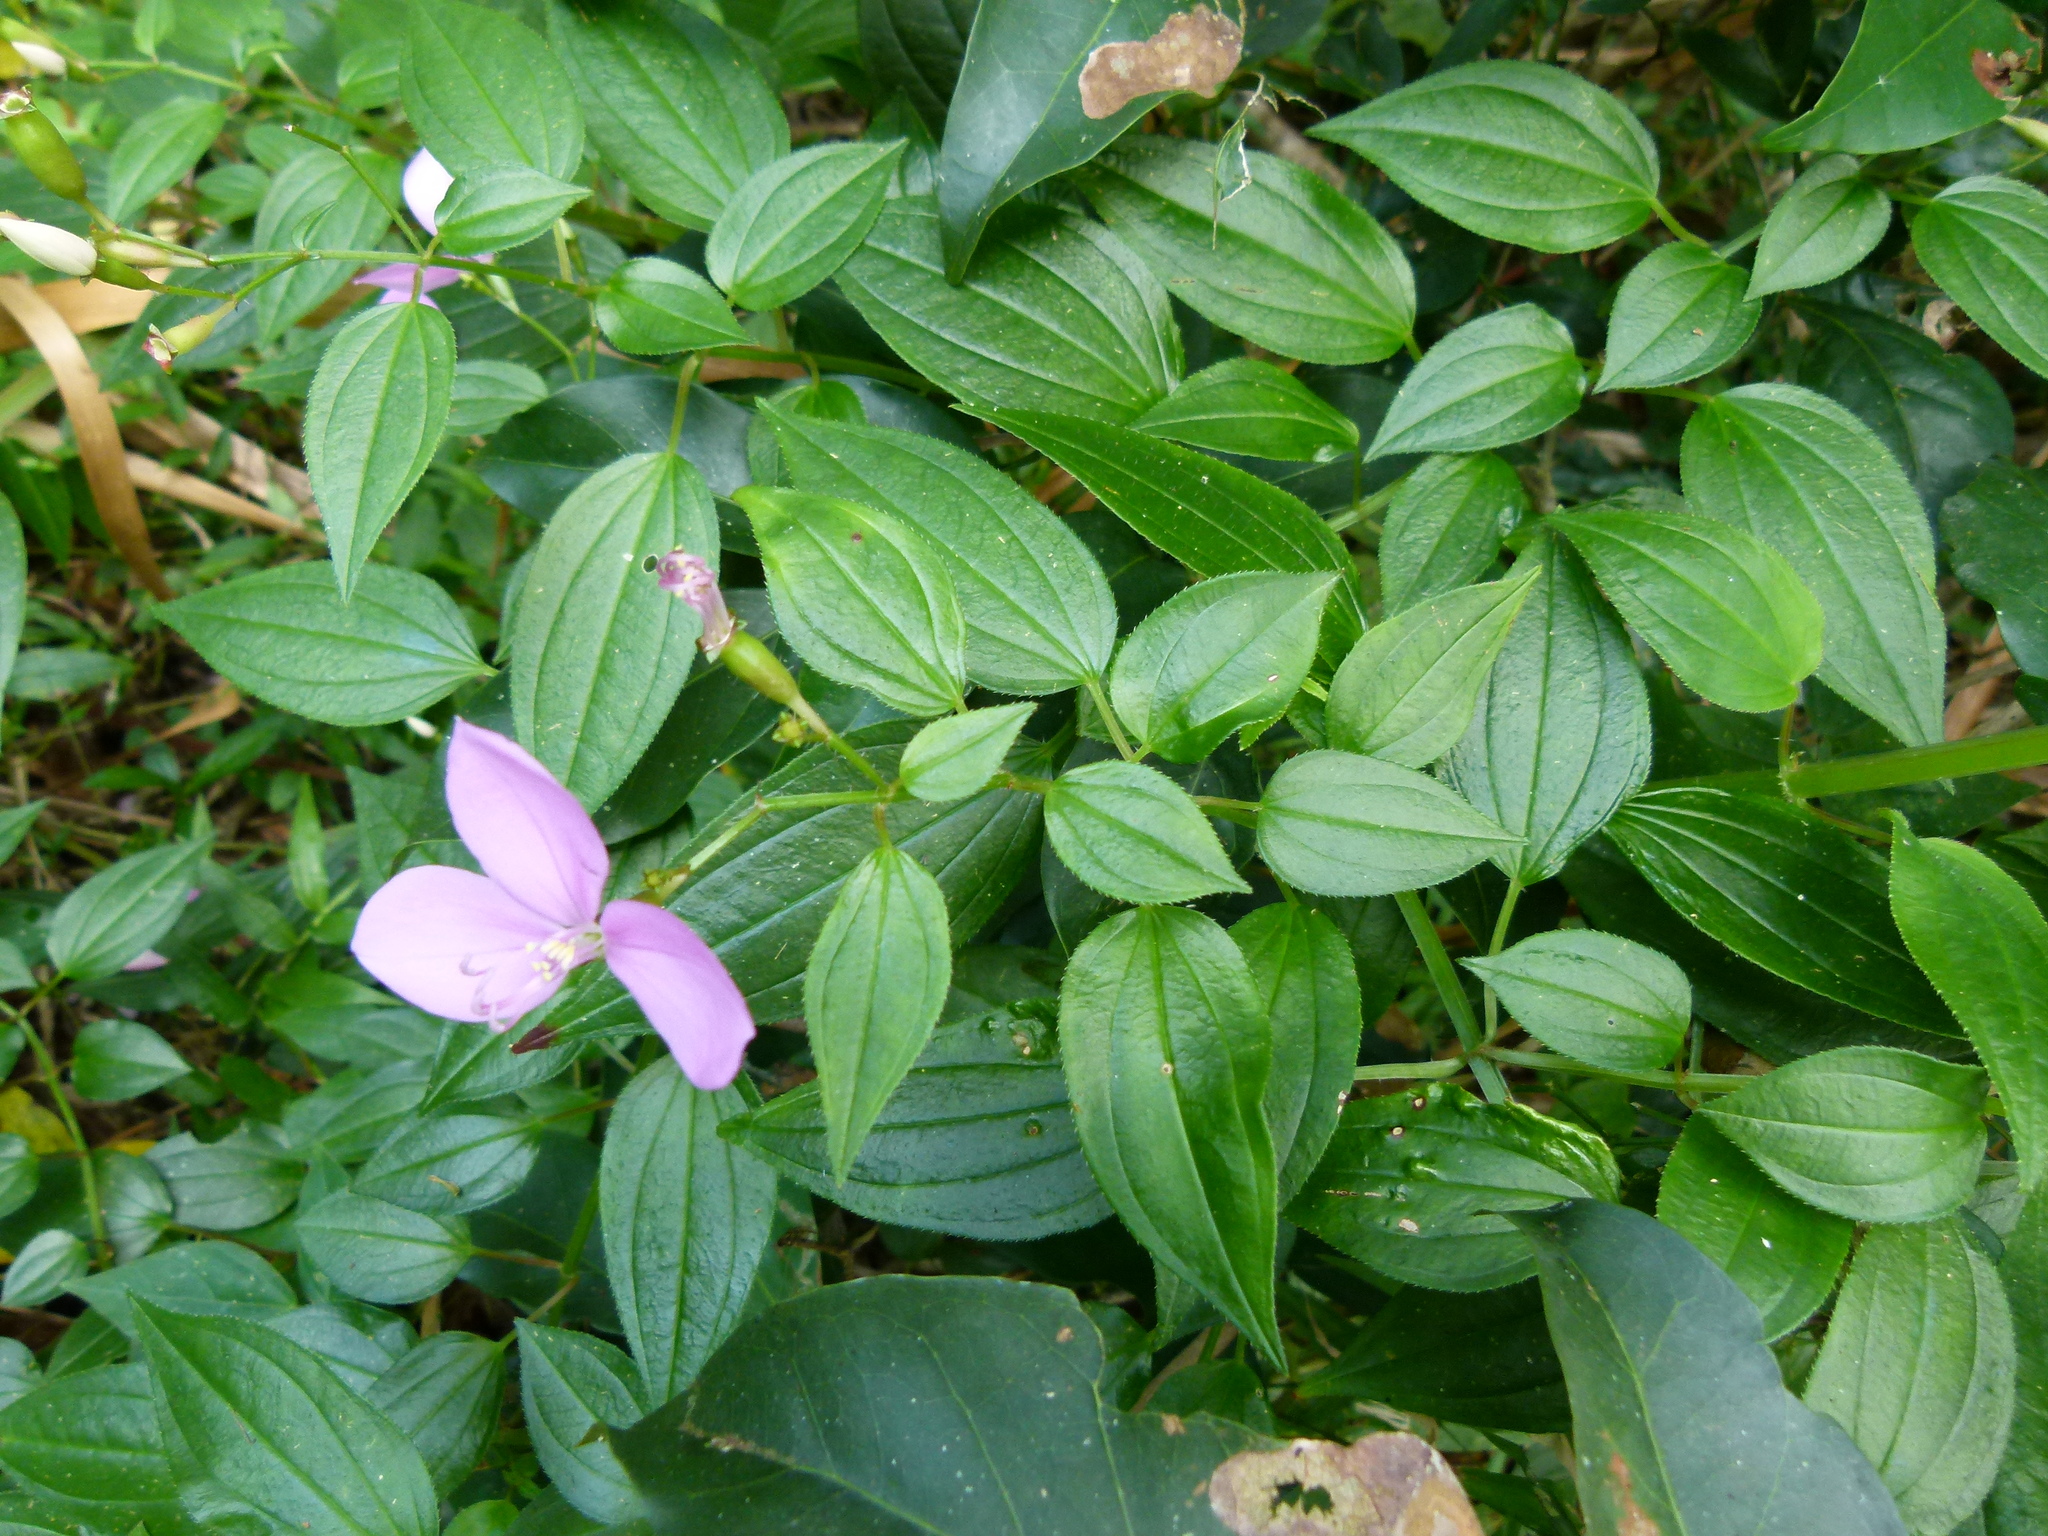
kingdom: Plantae
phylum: Tracheophyta
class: Magnoliopsida
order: Myrtales
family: Melastomataceae
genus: Arthrostemma
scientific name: Arthrostemma ciliatum
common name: Everblooming eavender
